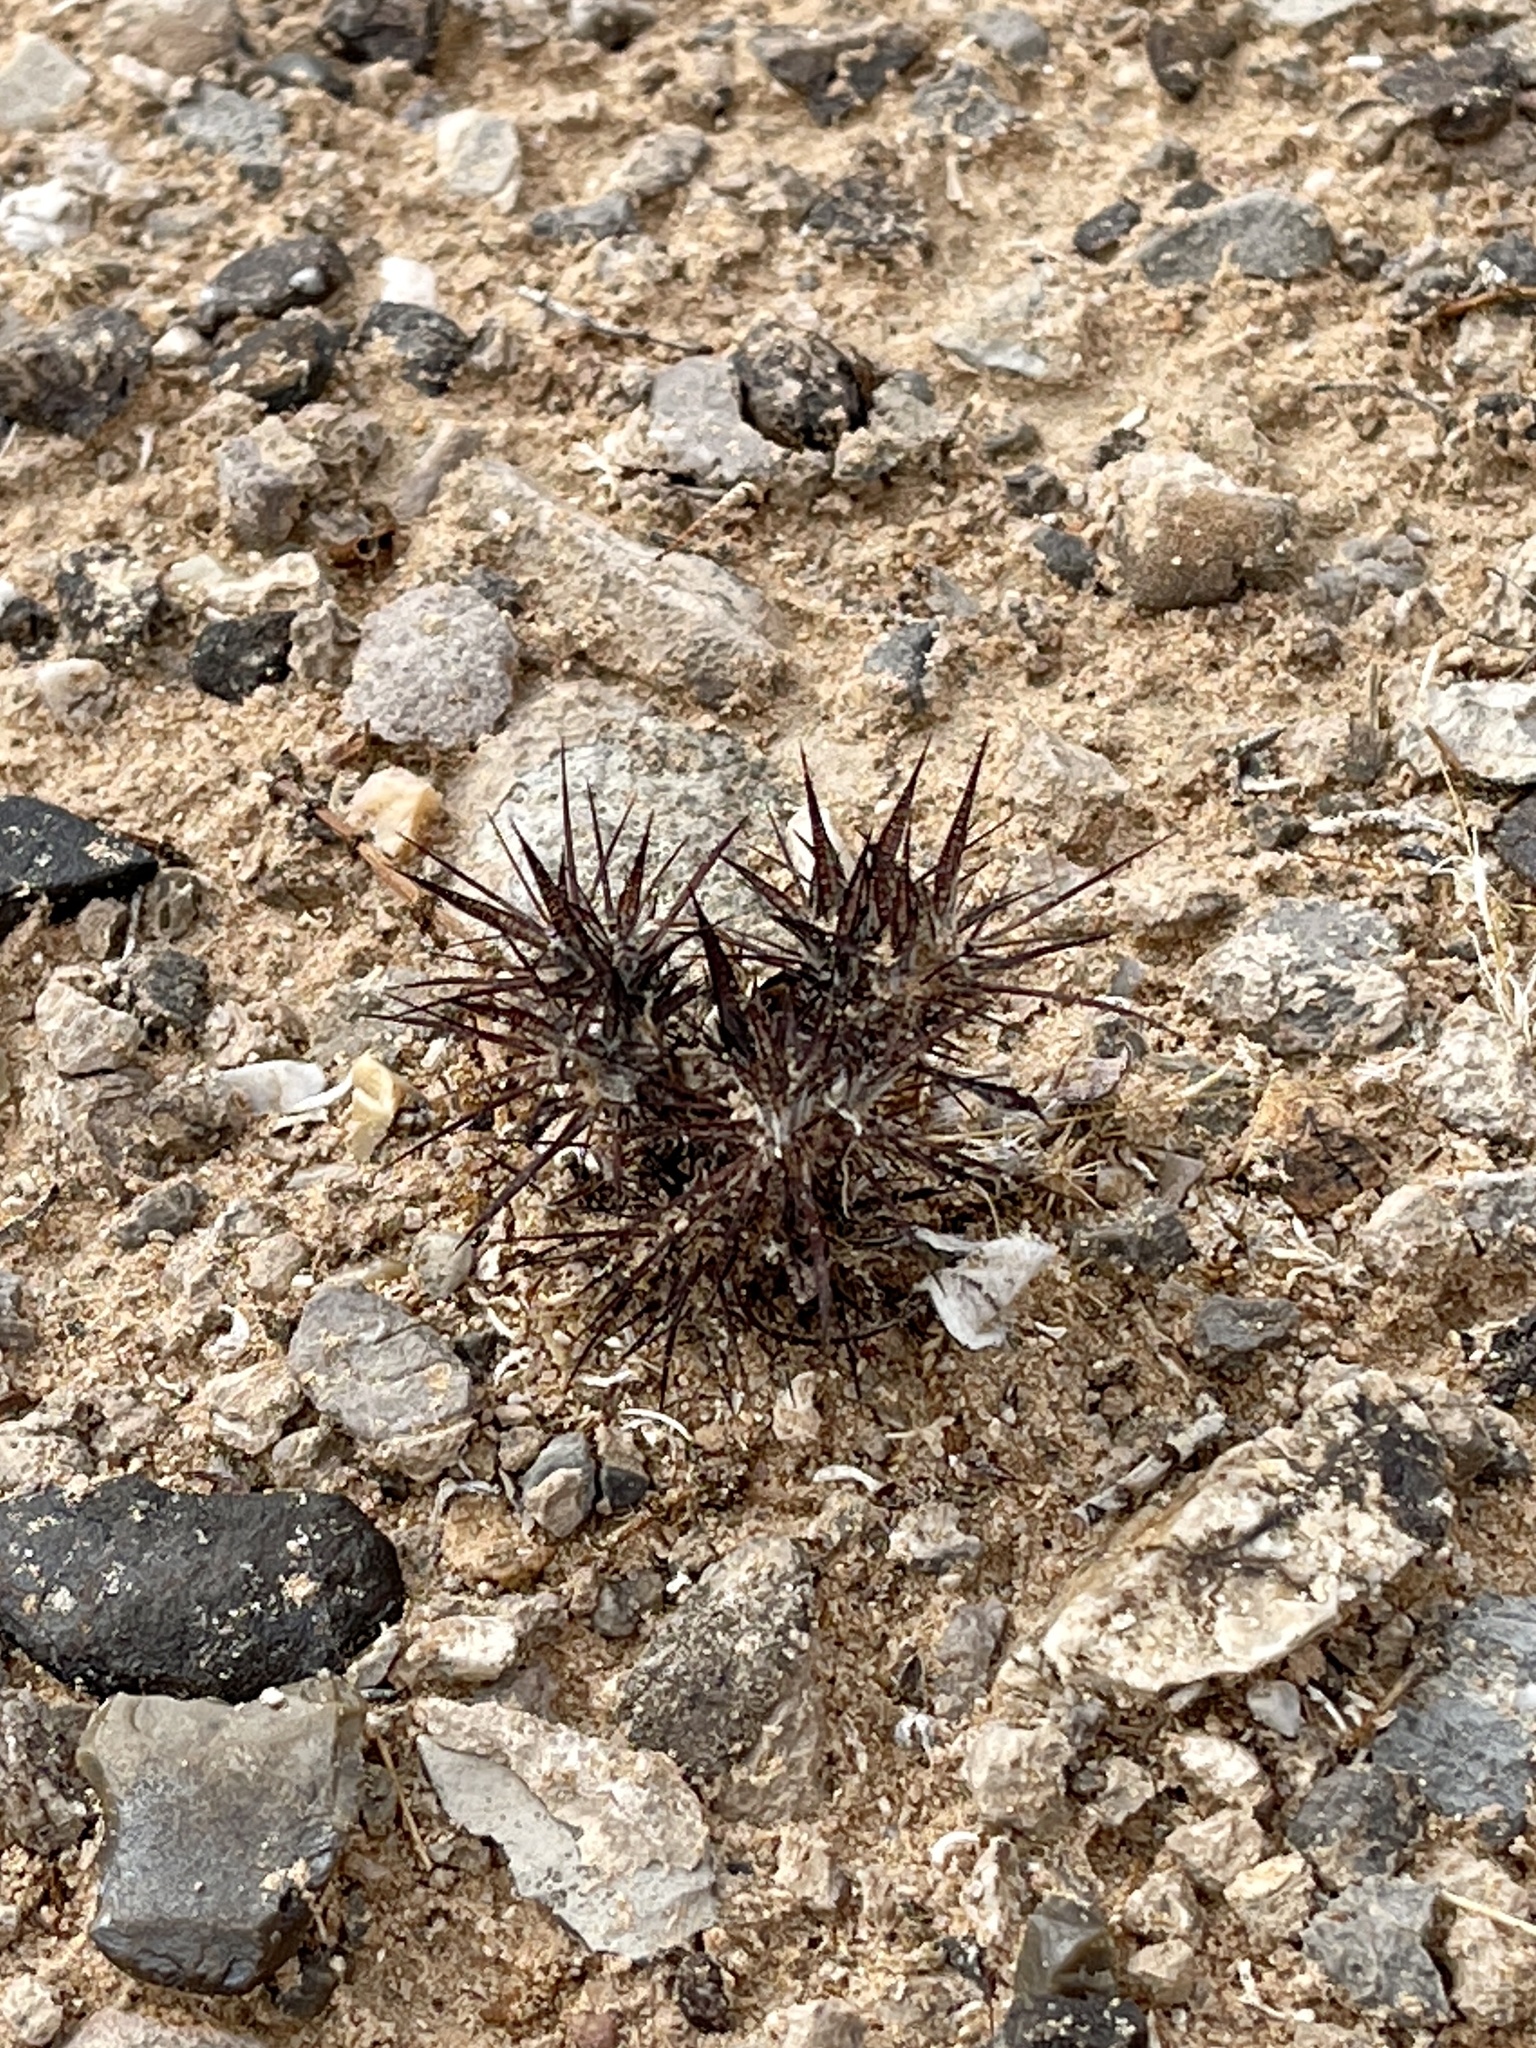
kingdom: Plantae
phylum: Tracheophyta
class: Magnoliopsida
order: Caryophyllales
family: Polygonaceae
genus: Chorizanthe
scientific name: Chorizanthe rigida
